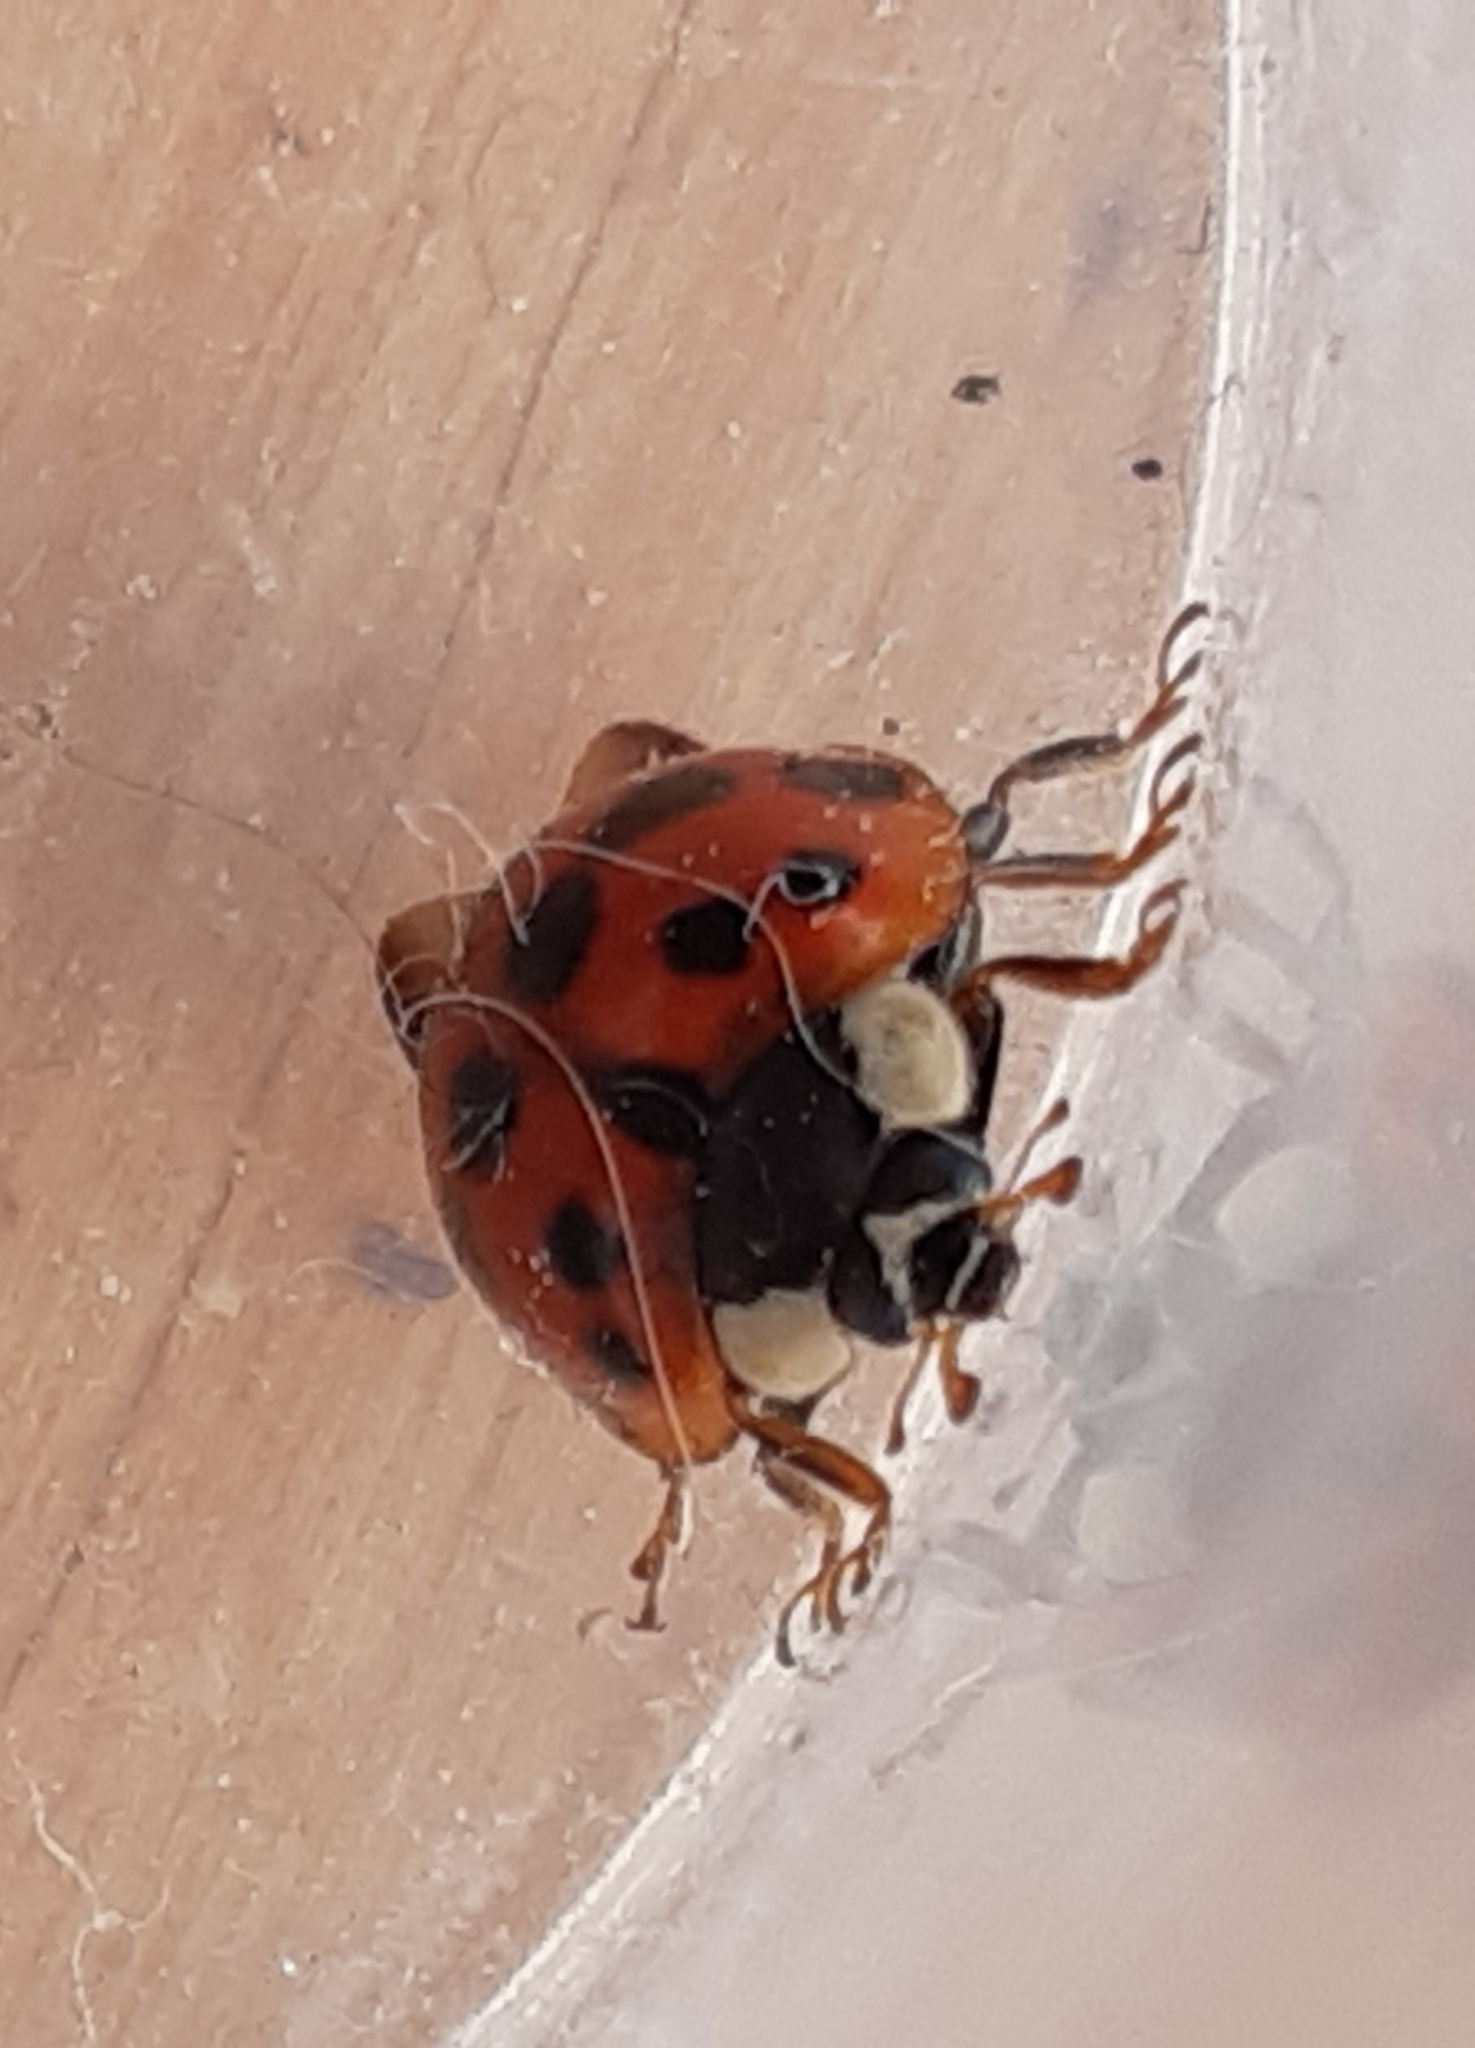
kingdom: Animalia
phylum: Arthropoda
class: Insecta
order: Coleoptera
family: Coccinellidae
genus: Harmonia
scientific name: Harmonia axyridis
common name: Harlequin ladybird
